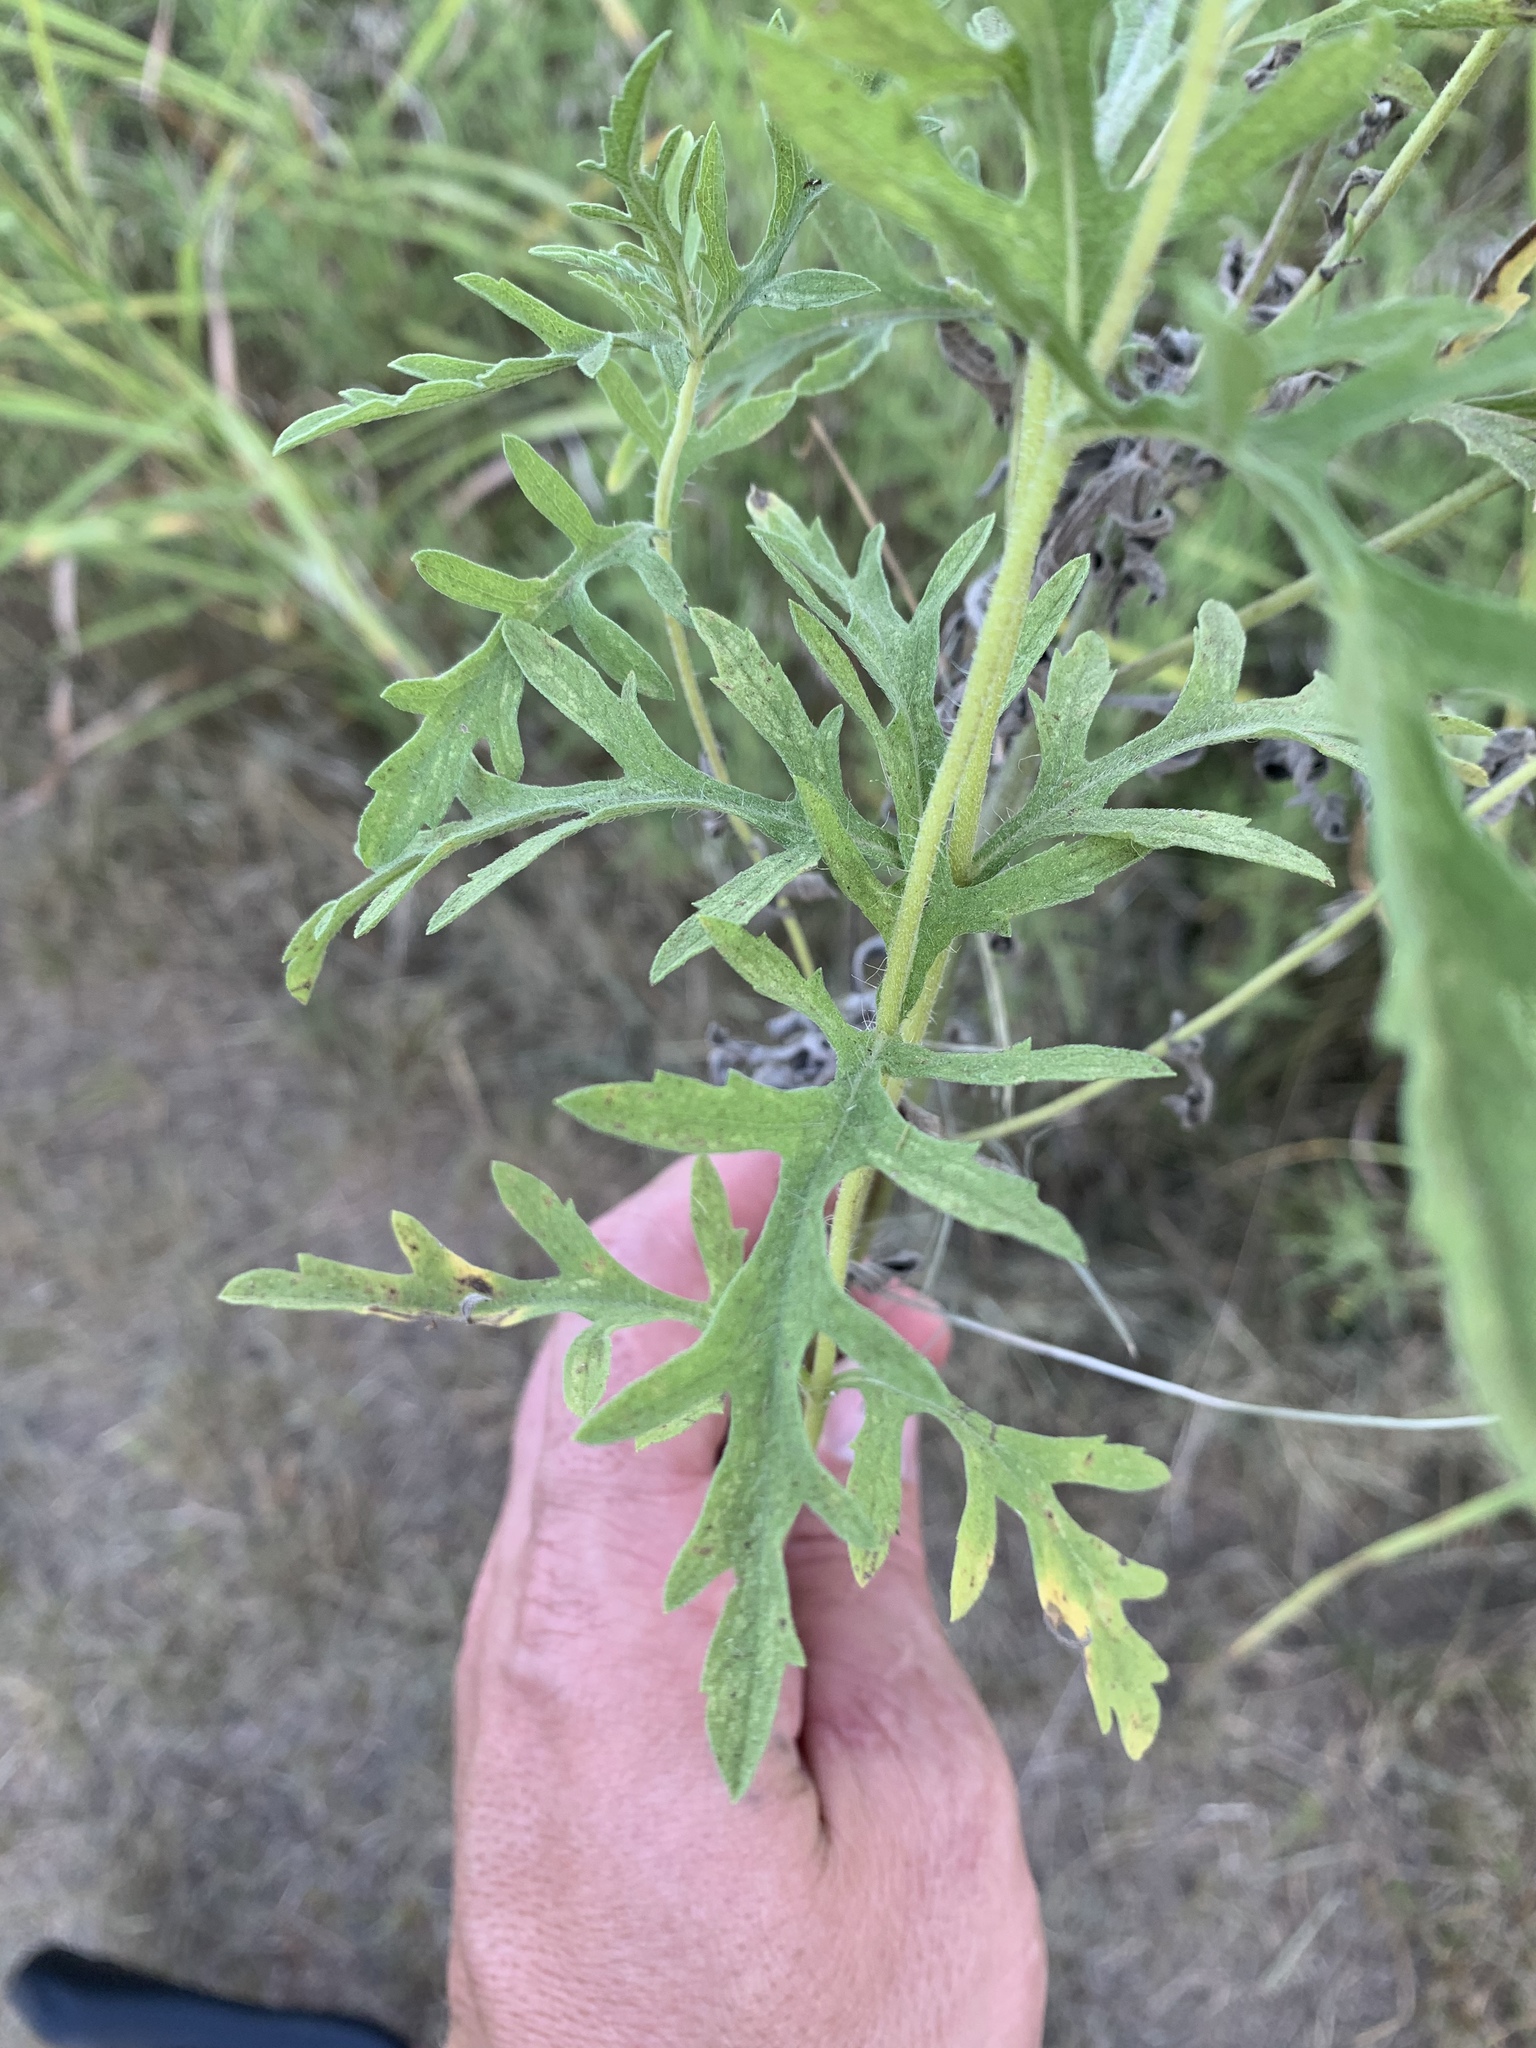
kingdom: Plantae
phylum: Tracheophyta
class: Magnoliopsida
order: Asterales
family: Asteraceae
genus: Ambrosia
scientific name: Ambrosia psilostachya
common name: Perennial ragweed
